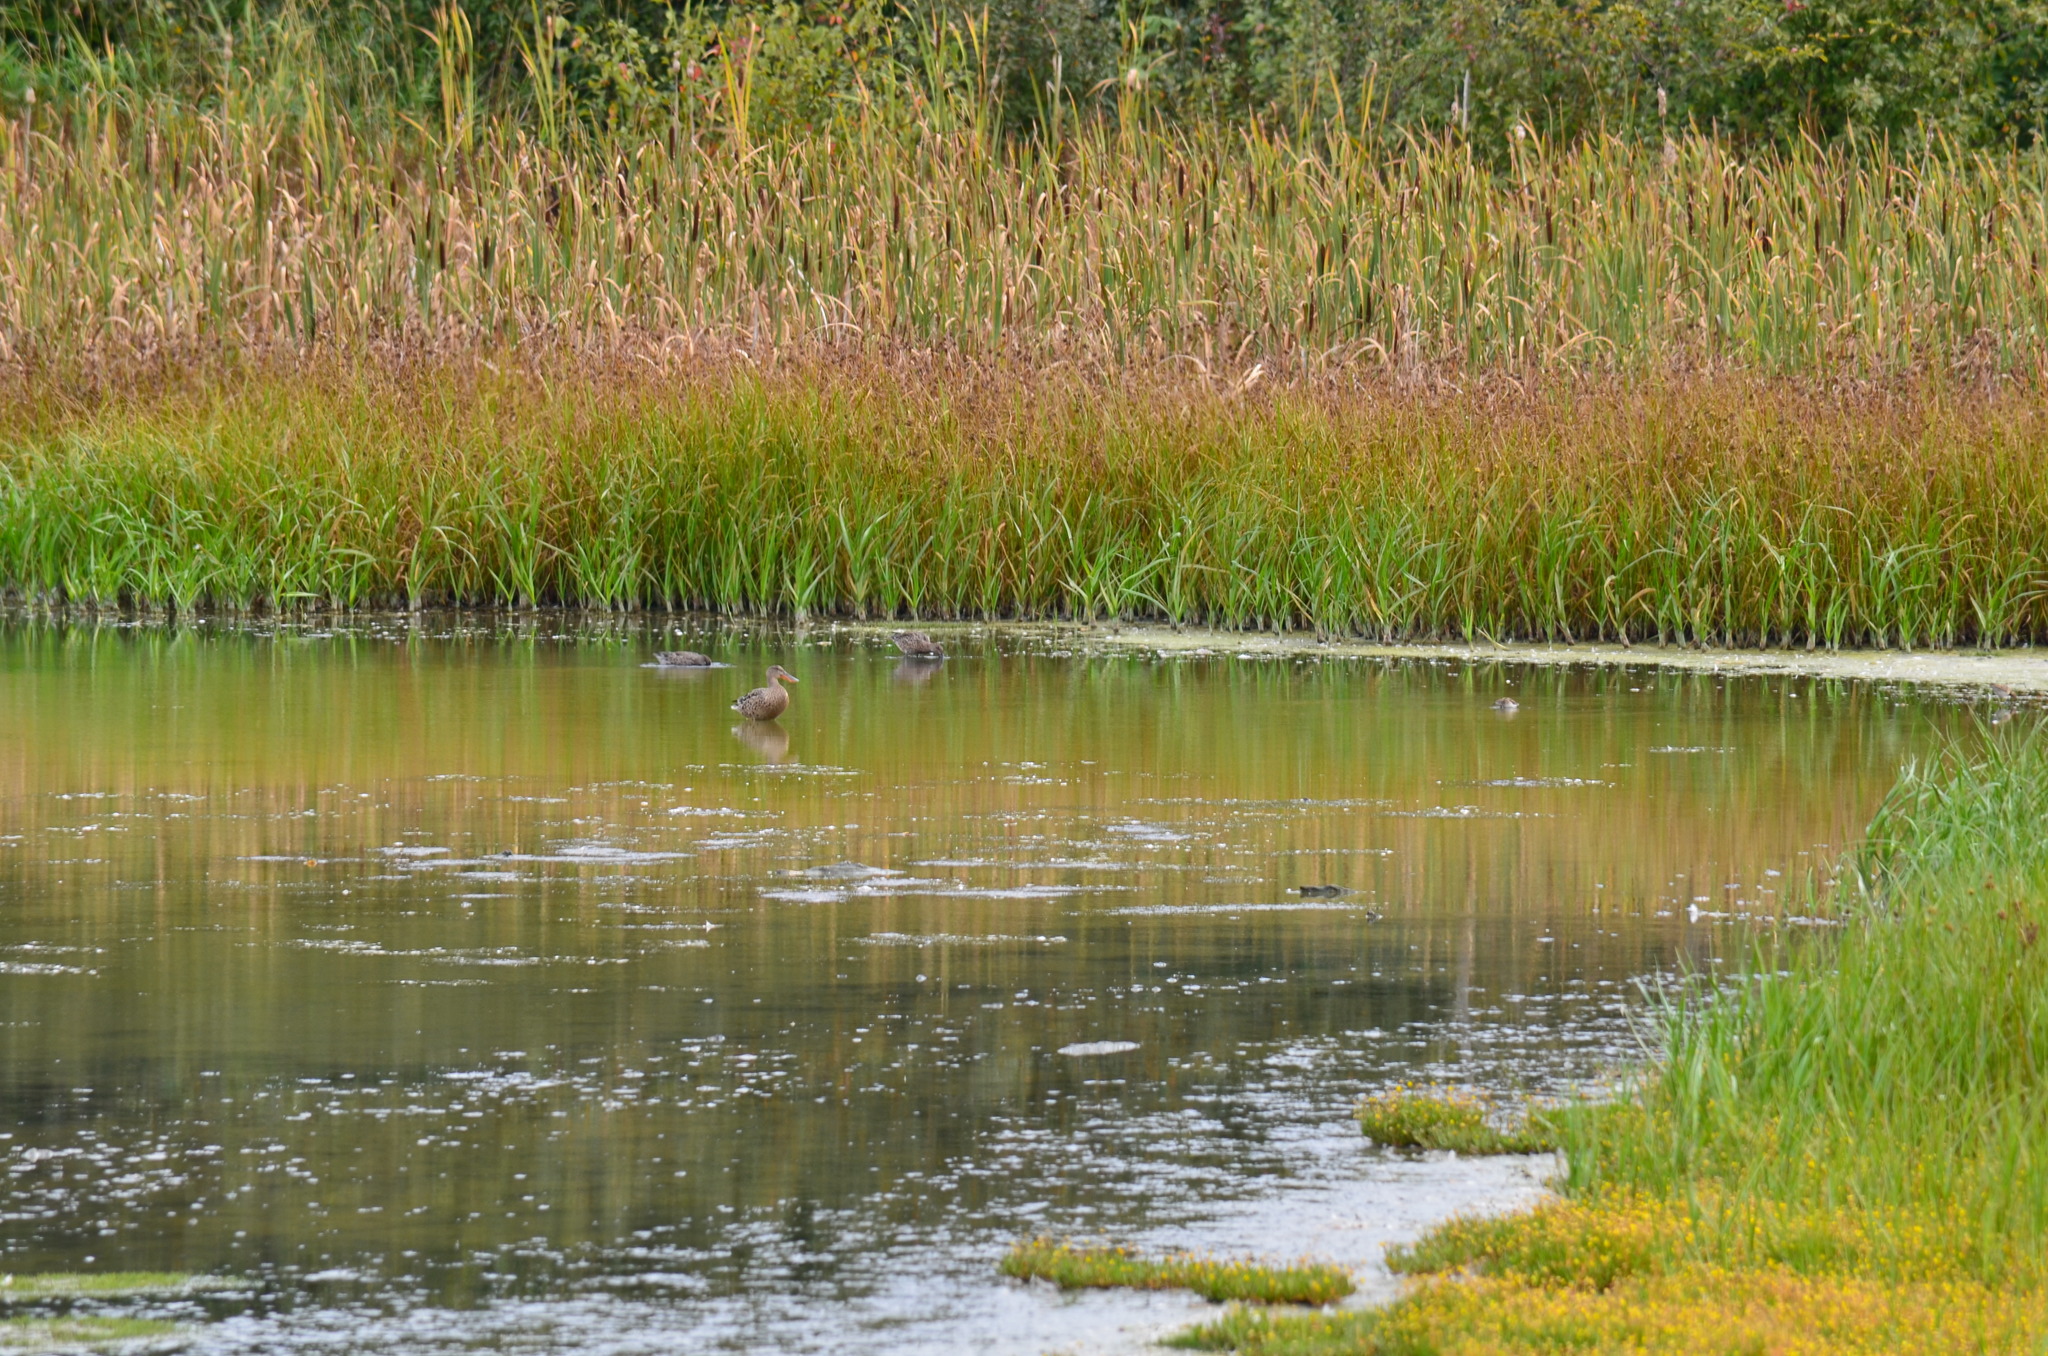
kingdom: Animalia
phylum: Chordata
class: Aves
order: Anseriformes
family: Anatidae
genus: Spatula
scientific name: Spatula clypeata
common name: Northern shoveler
